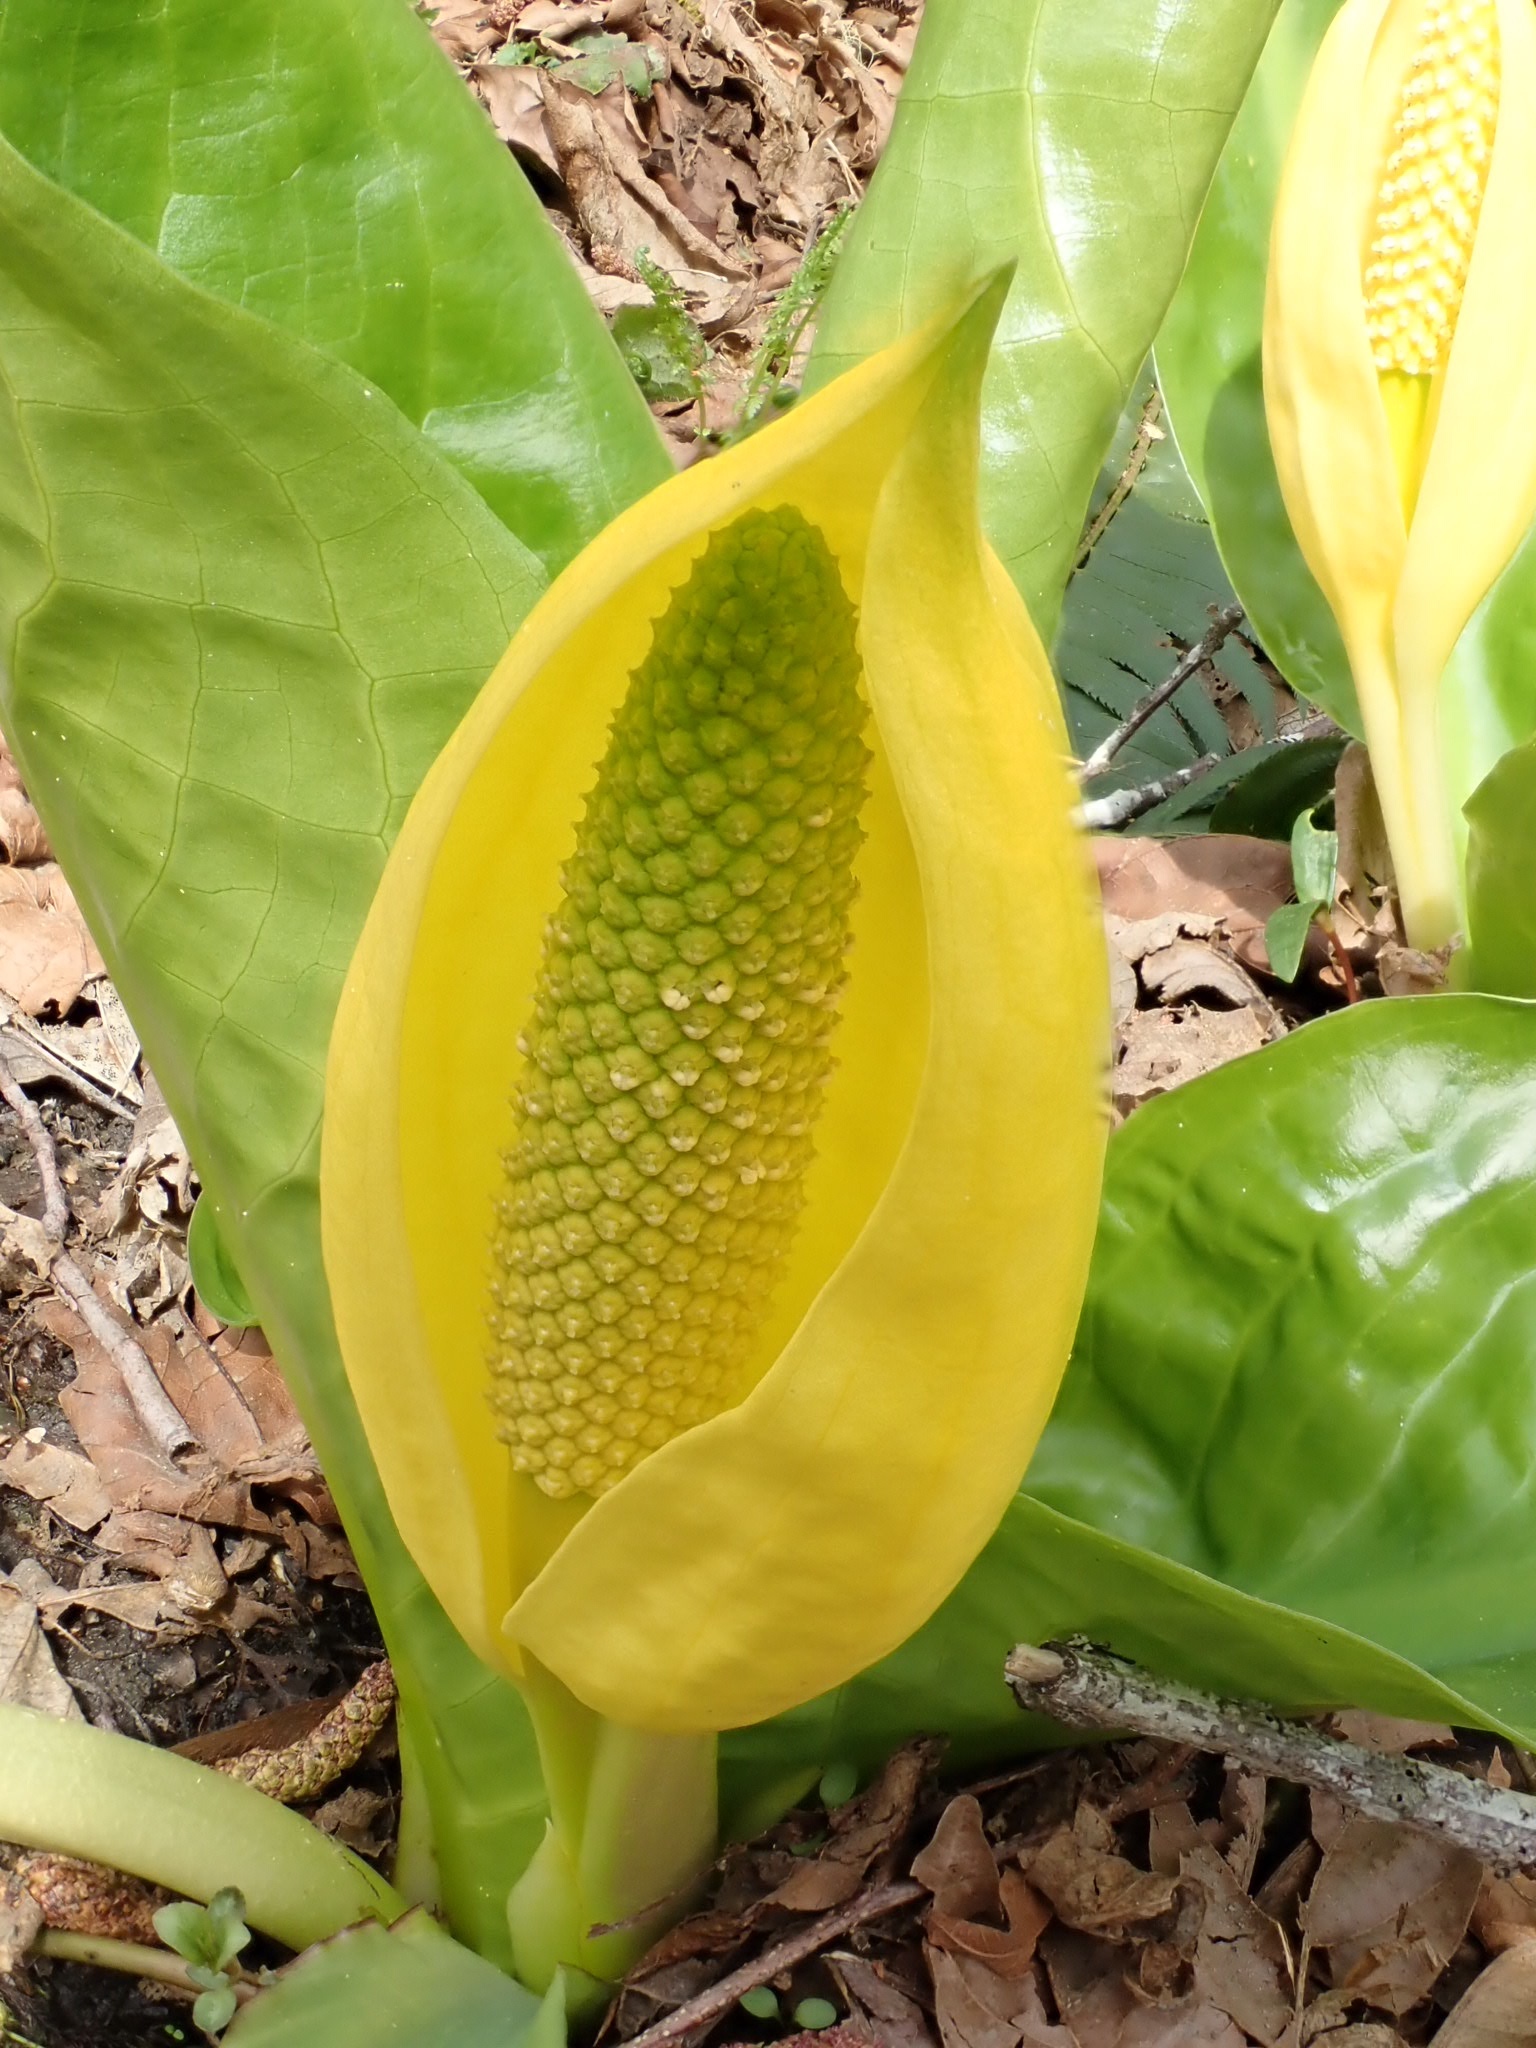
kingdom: Plantae
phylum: Tracheophyta
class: Liliopsida
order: Alismatales
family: Araceae
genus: Lysichiton
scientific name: Lysichiton americanus
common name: American skunk cabbage
